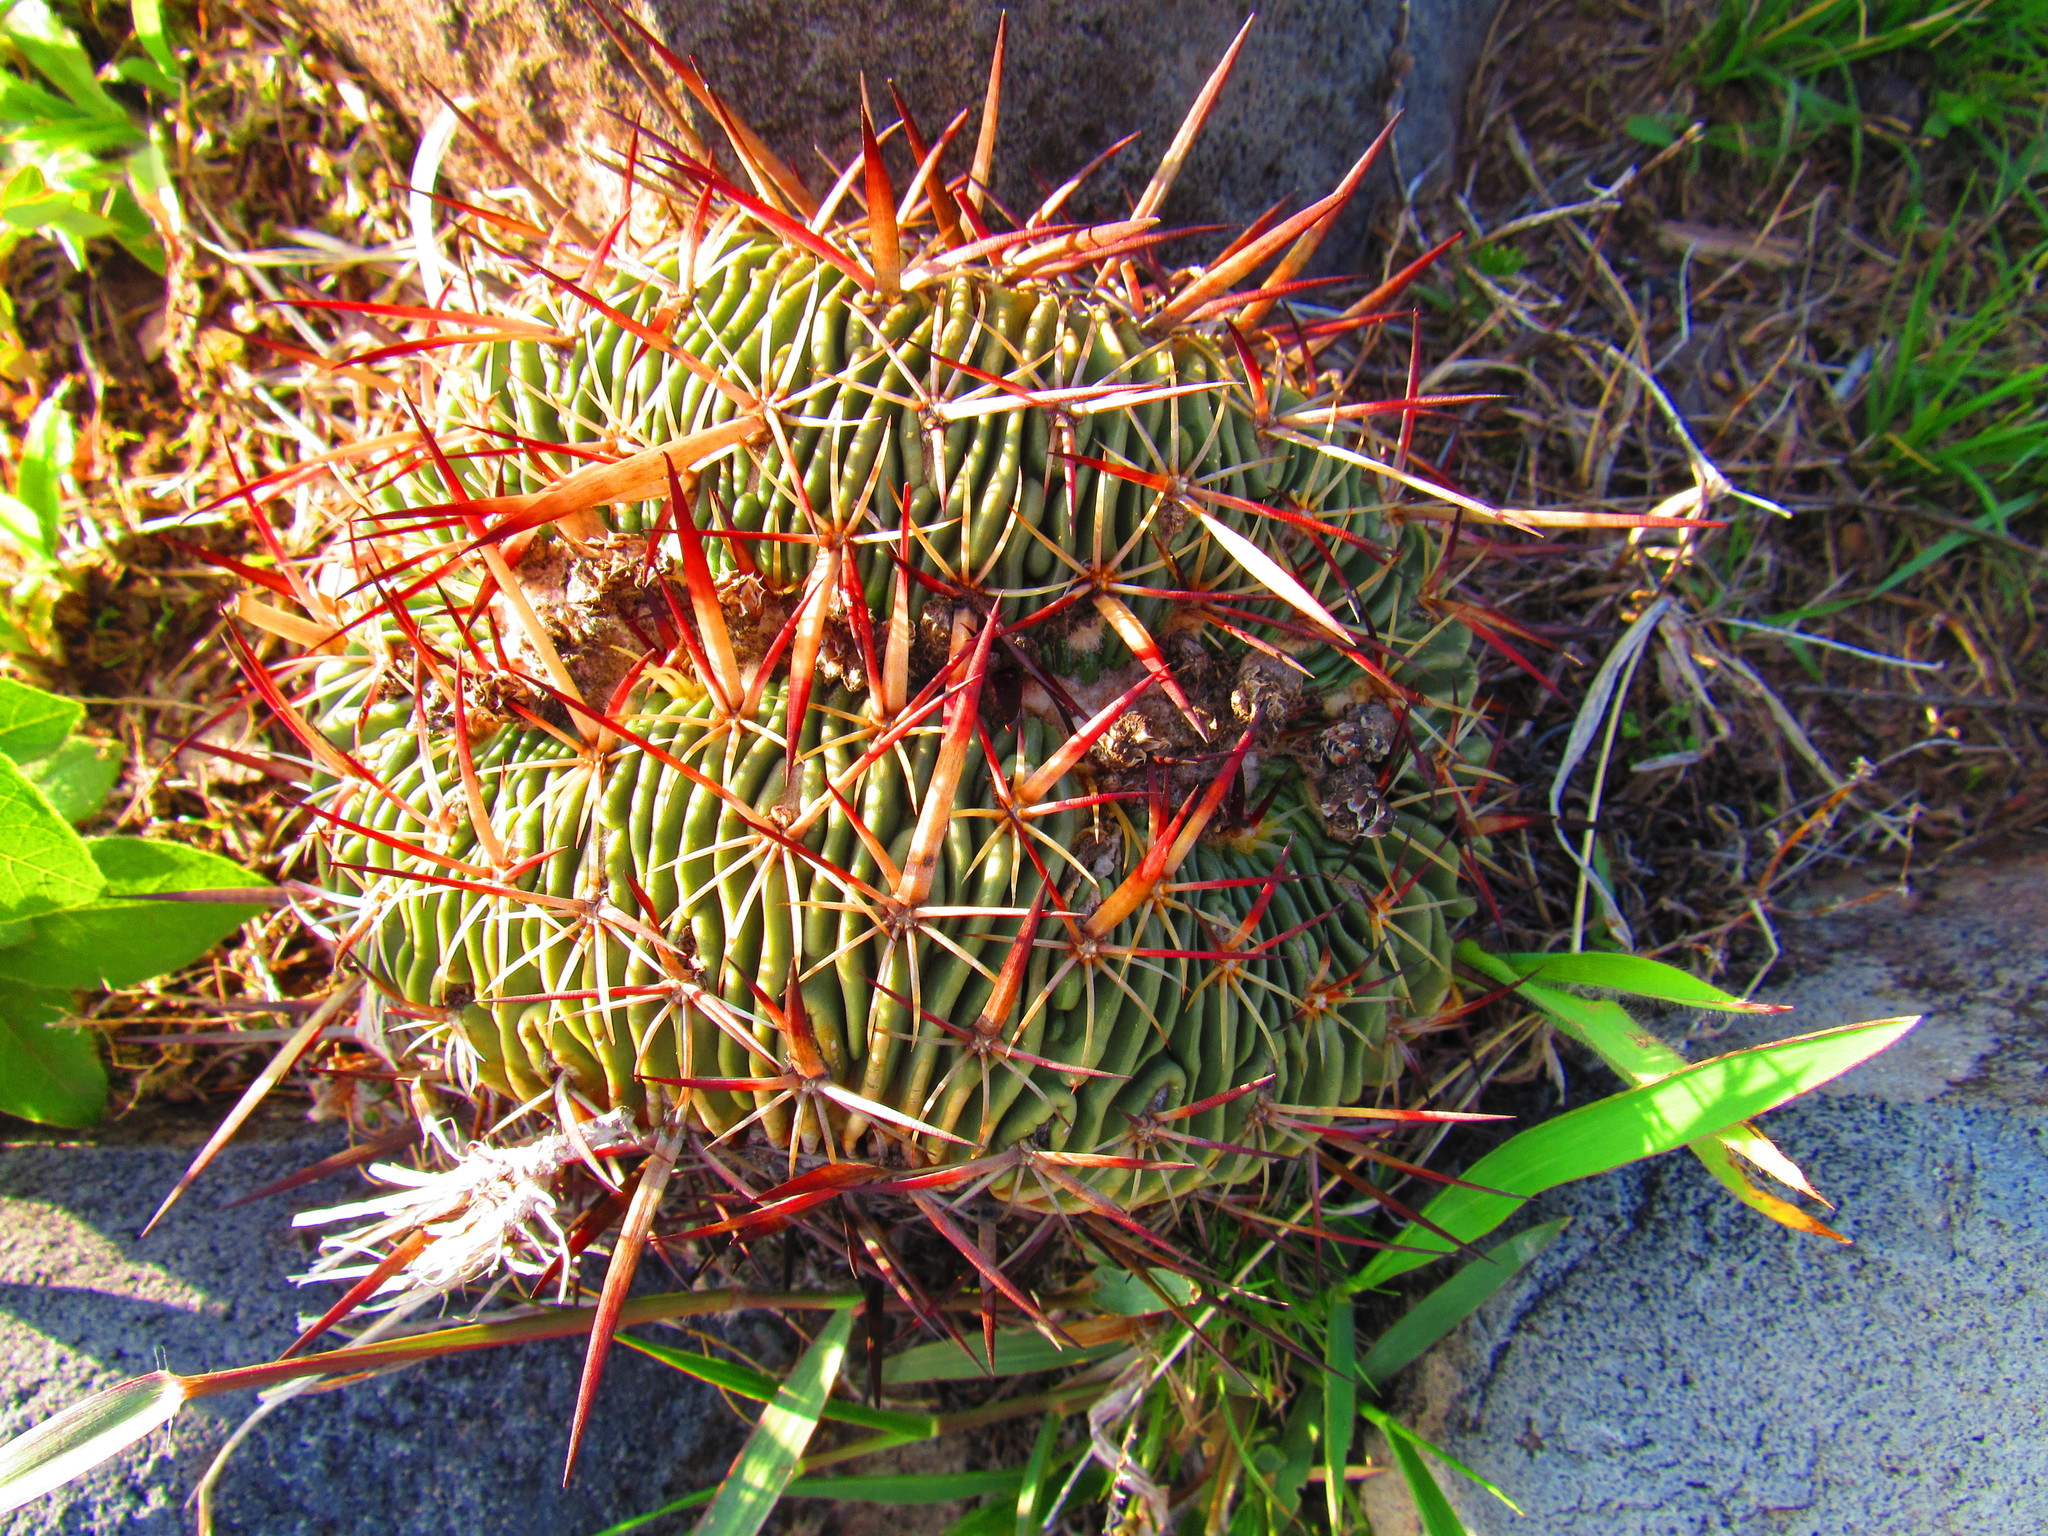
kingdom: Plantae
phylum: Tracheophyta
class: Magnoliopsida
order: Caryophyllales
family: Cactaceae
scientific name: Cactaceae
